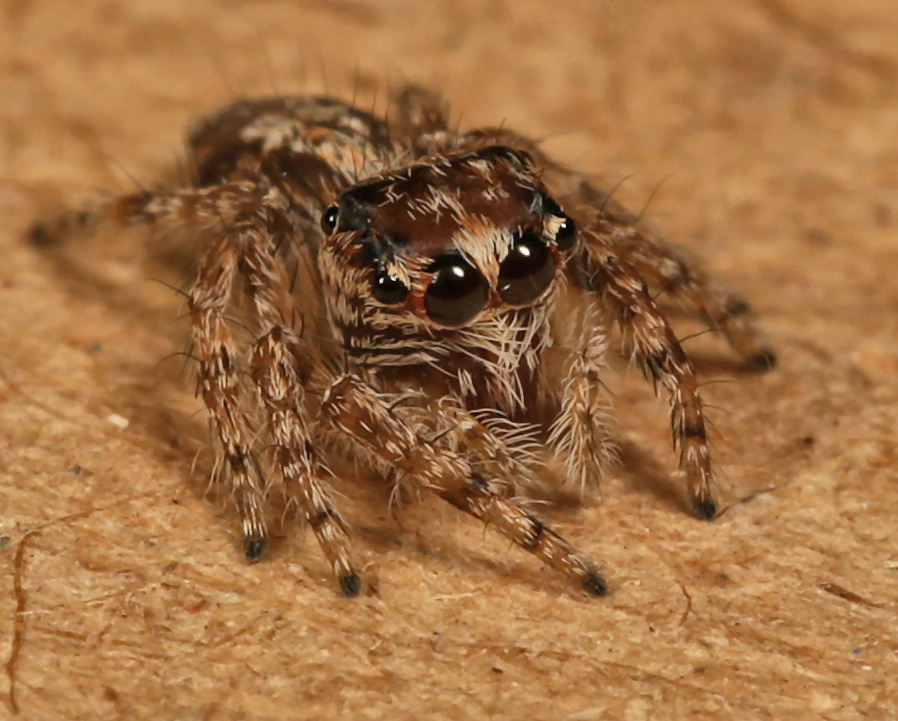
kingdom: Animalia
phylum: Arthropoda
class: Arachnida
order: Araneae
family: Salticidae
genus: Hyllus
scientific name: Hyllus treleaveni
